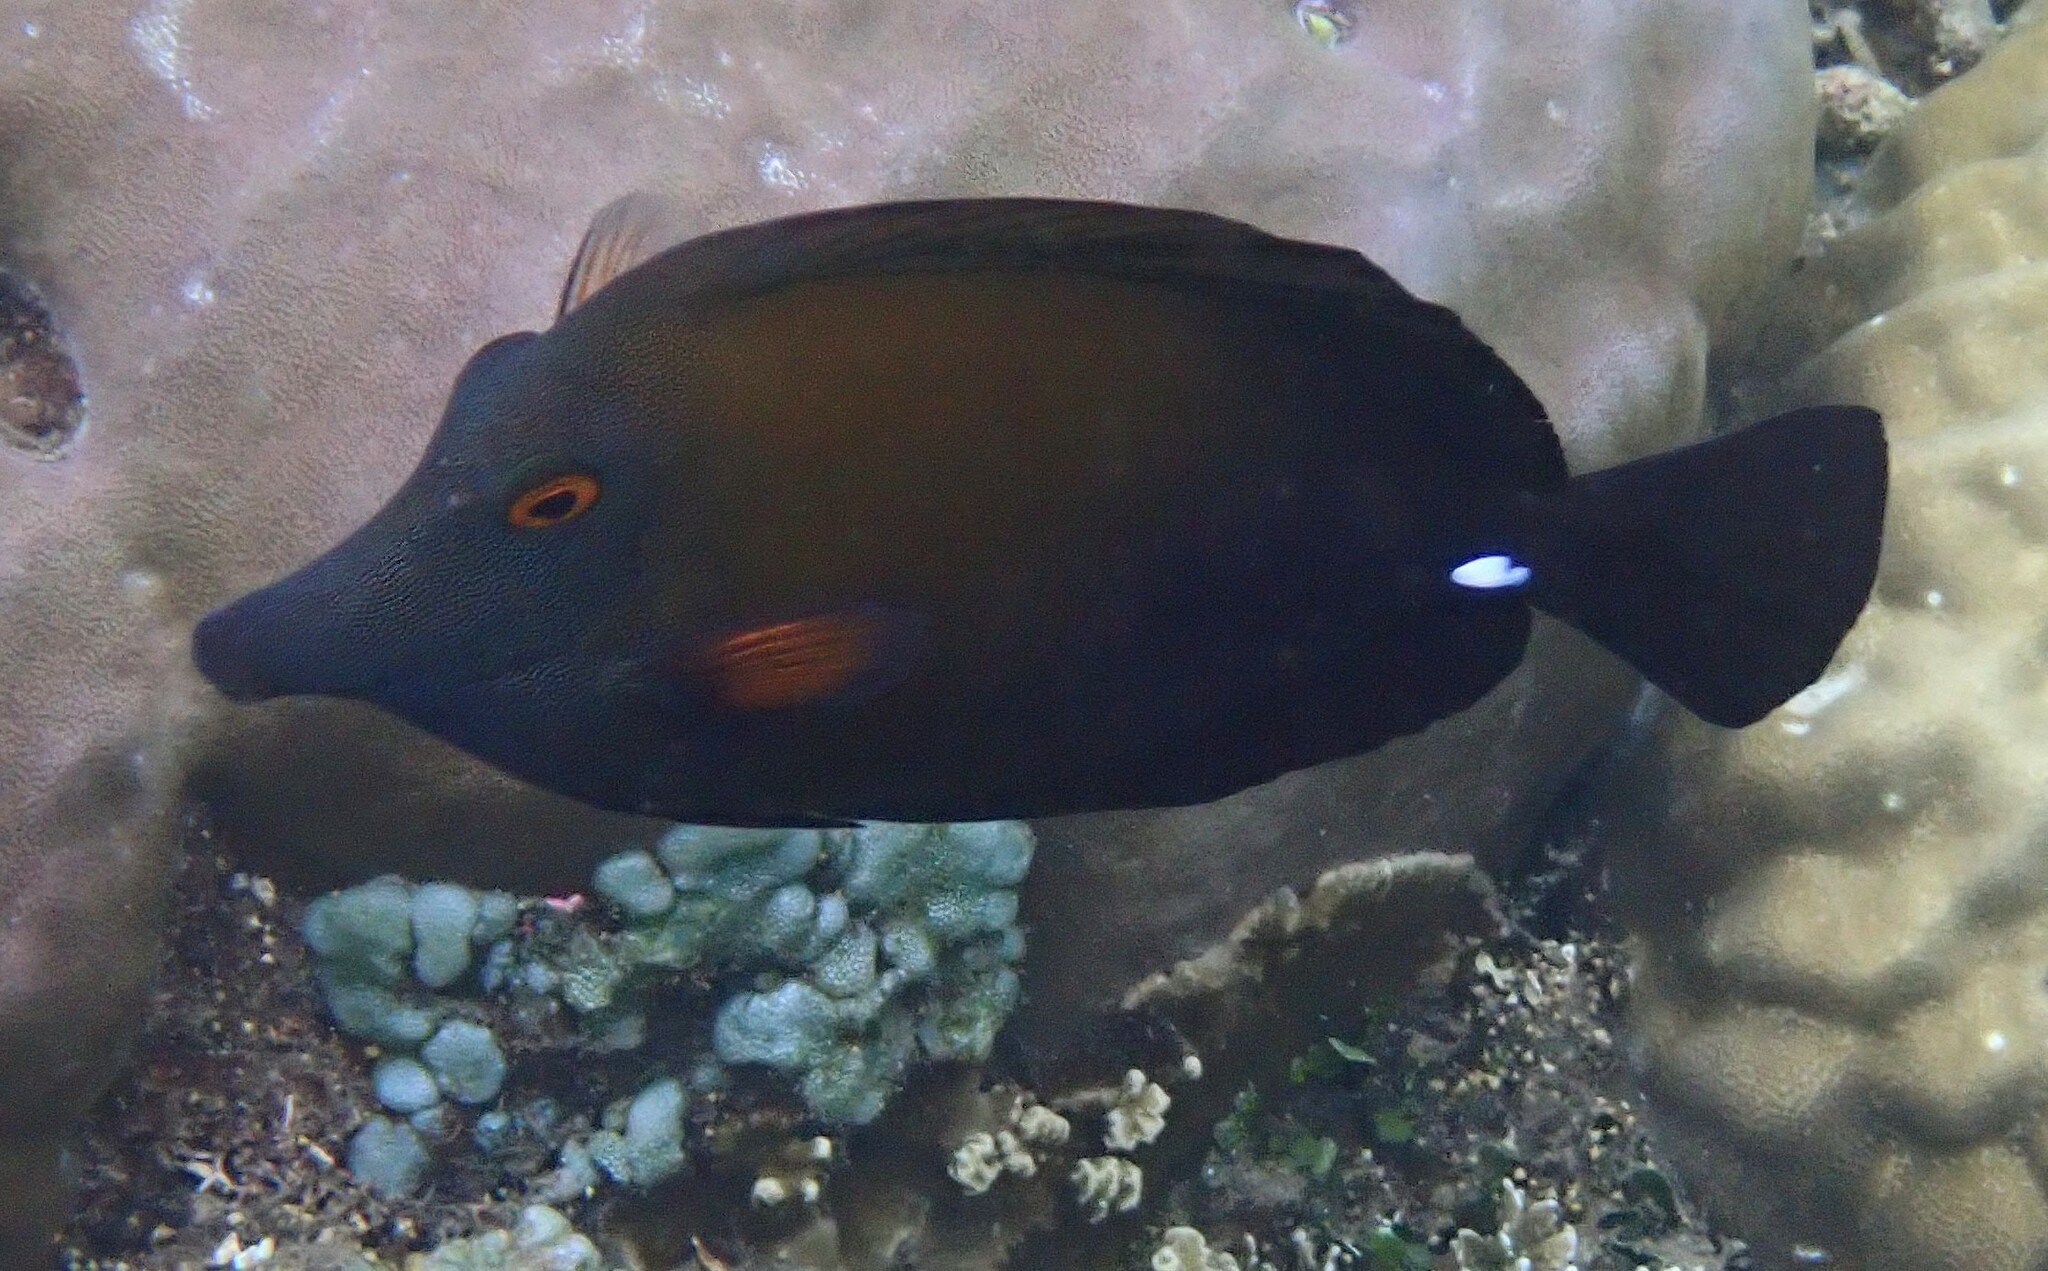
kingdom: Animalia
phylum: Chordata
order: Perciformes
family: Acanthuridae
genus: Zebrasoma
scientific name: Zebrasoma scopas
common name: Twotone tang
